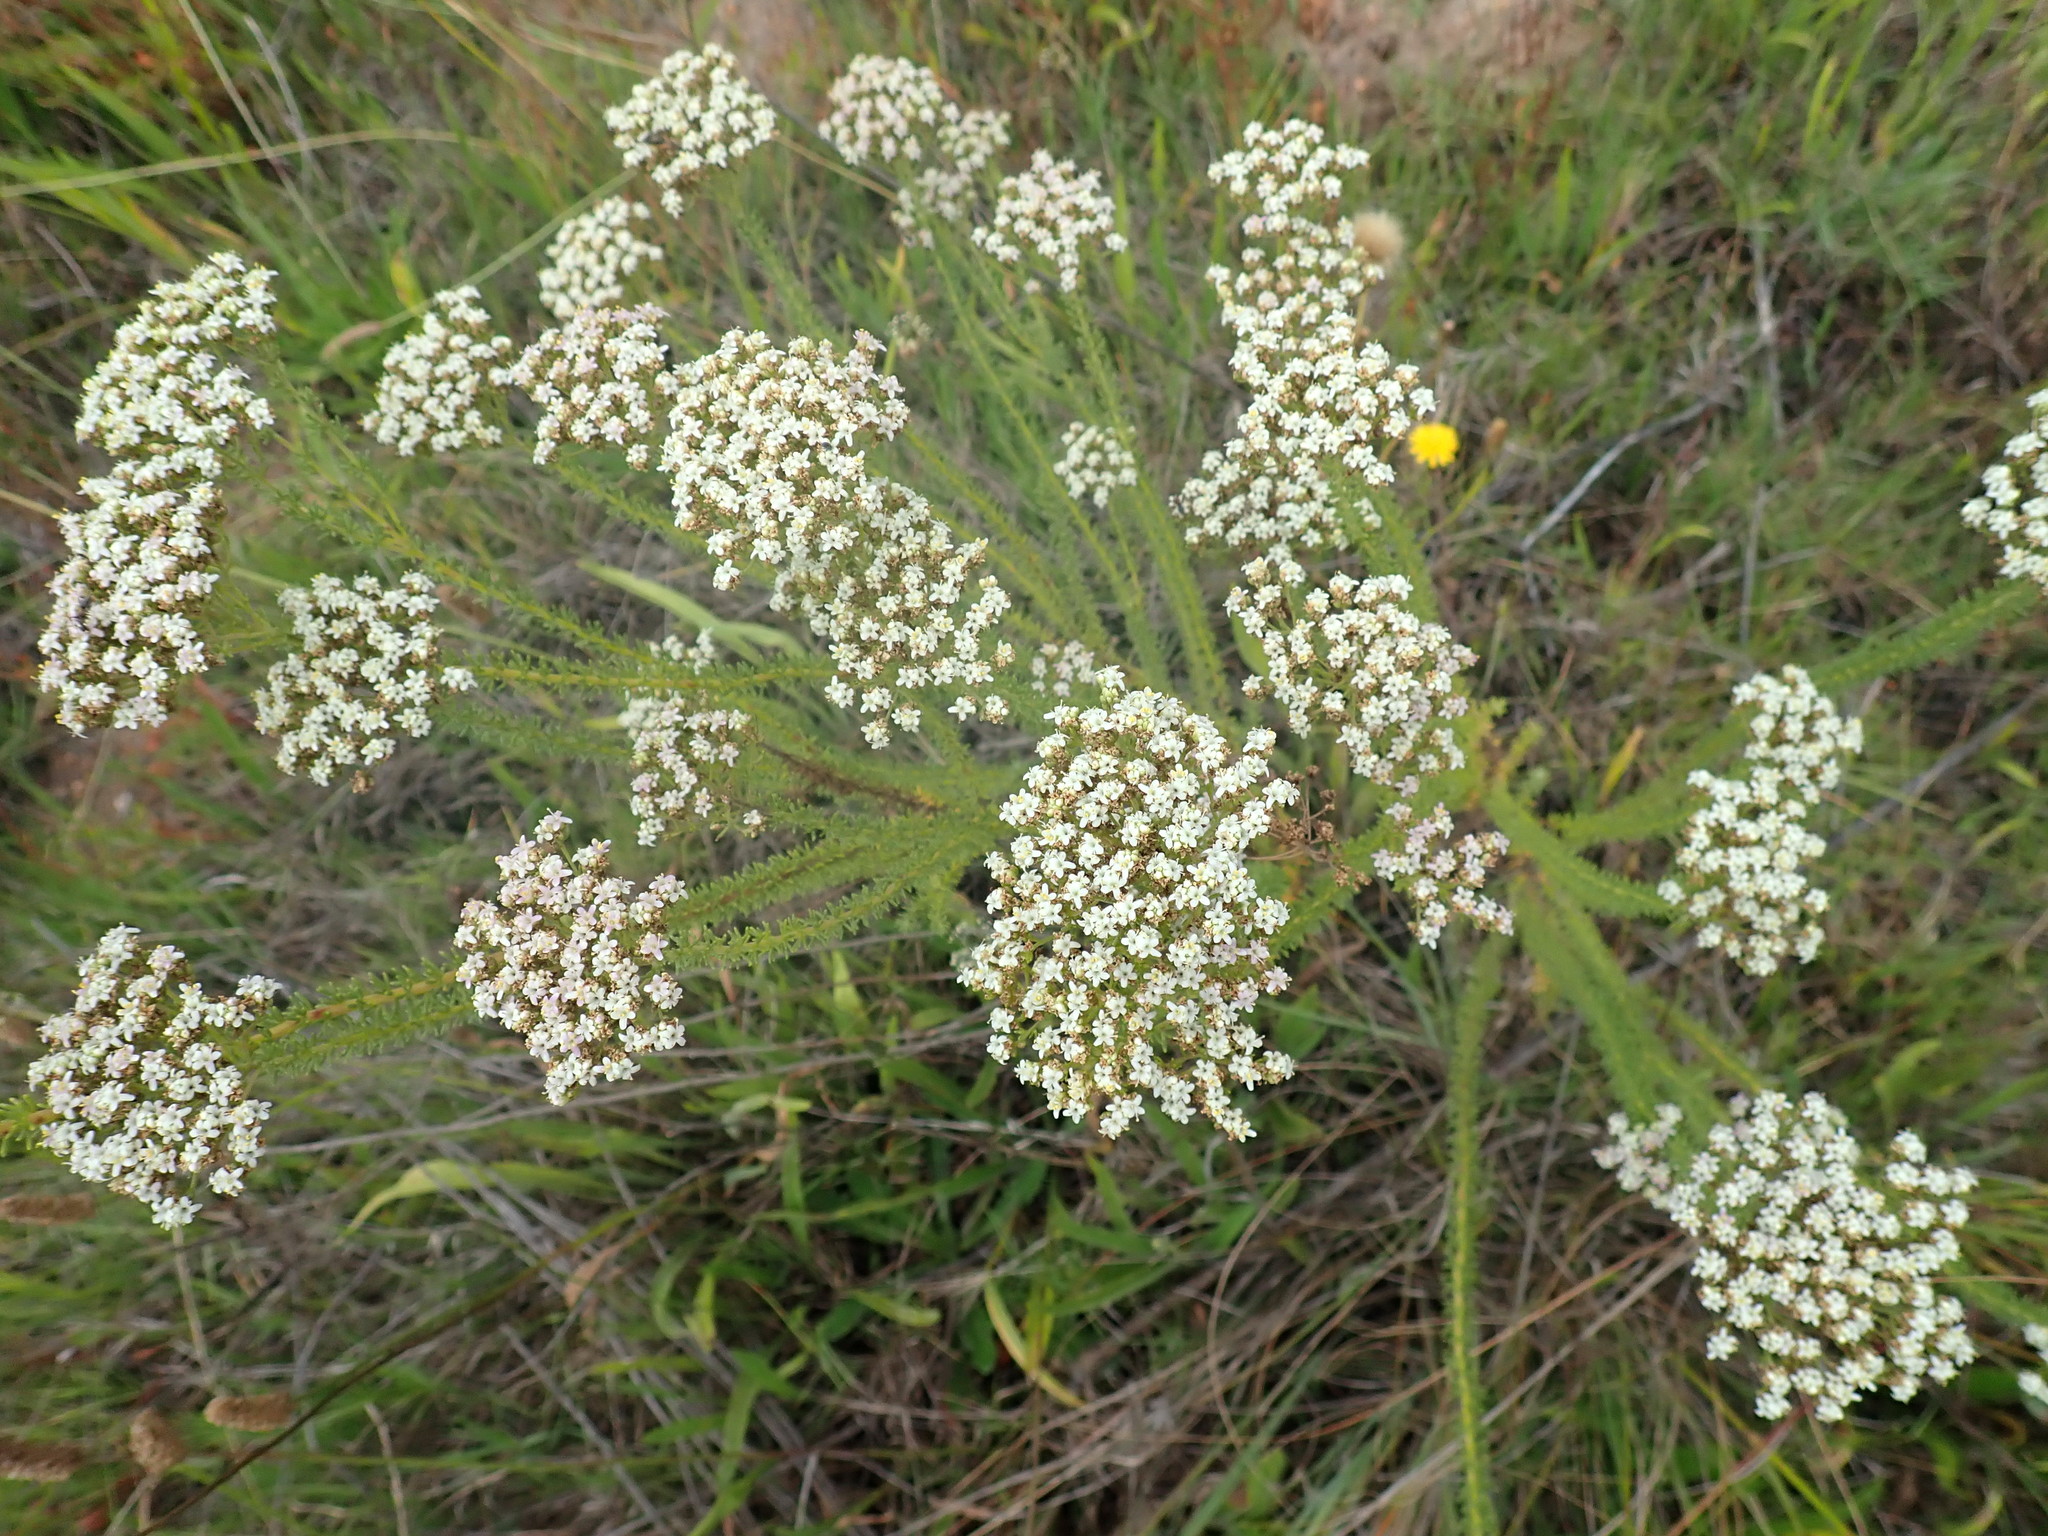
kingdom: Plantae
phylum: Tracheophyta
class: Magnoliopsida
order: Lamiales
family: Scrophulariaceae
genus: Selago
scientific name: Selago dolosa
